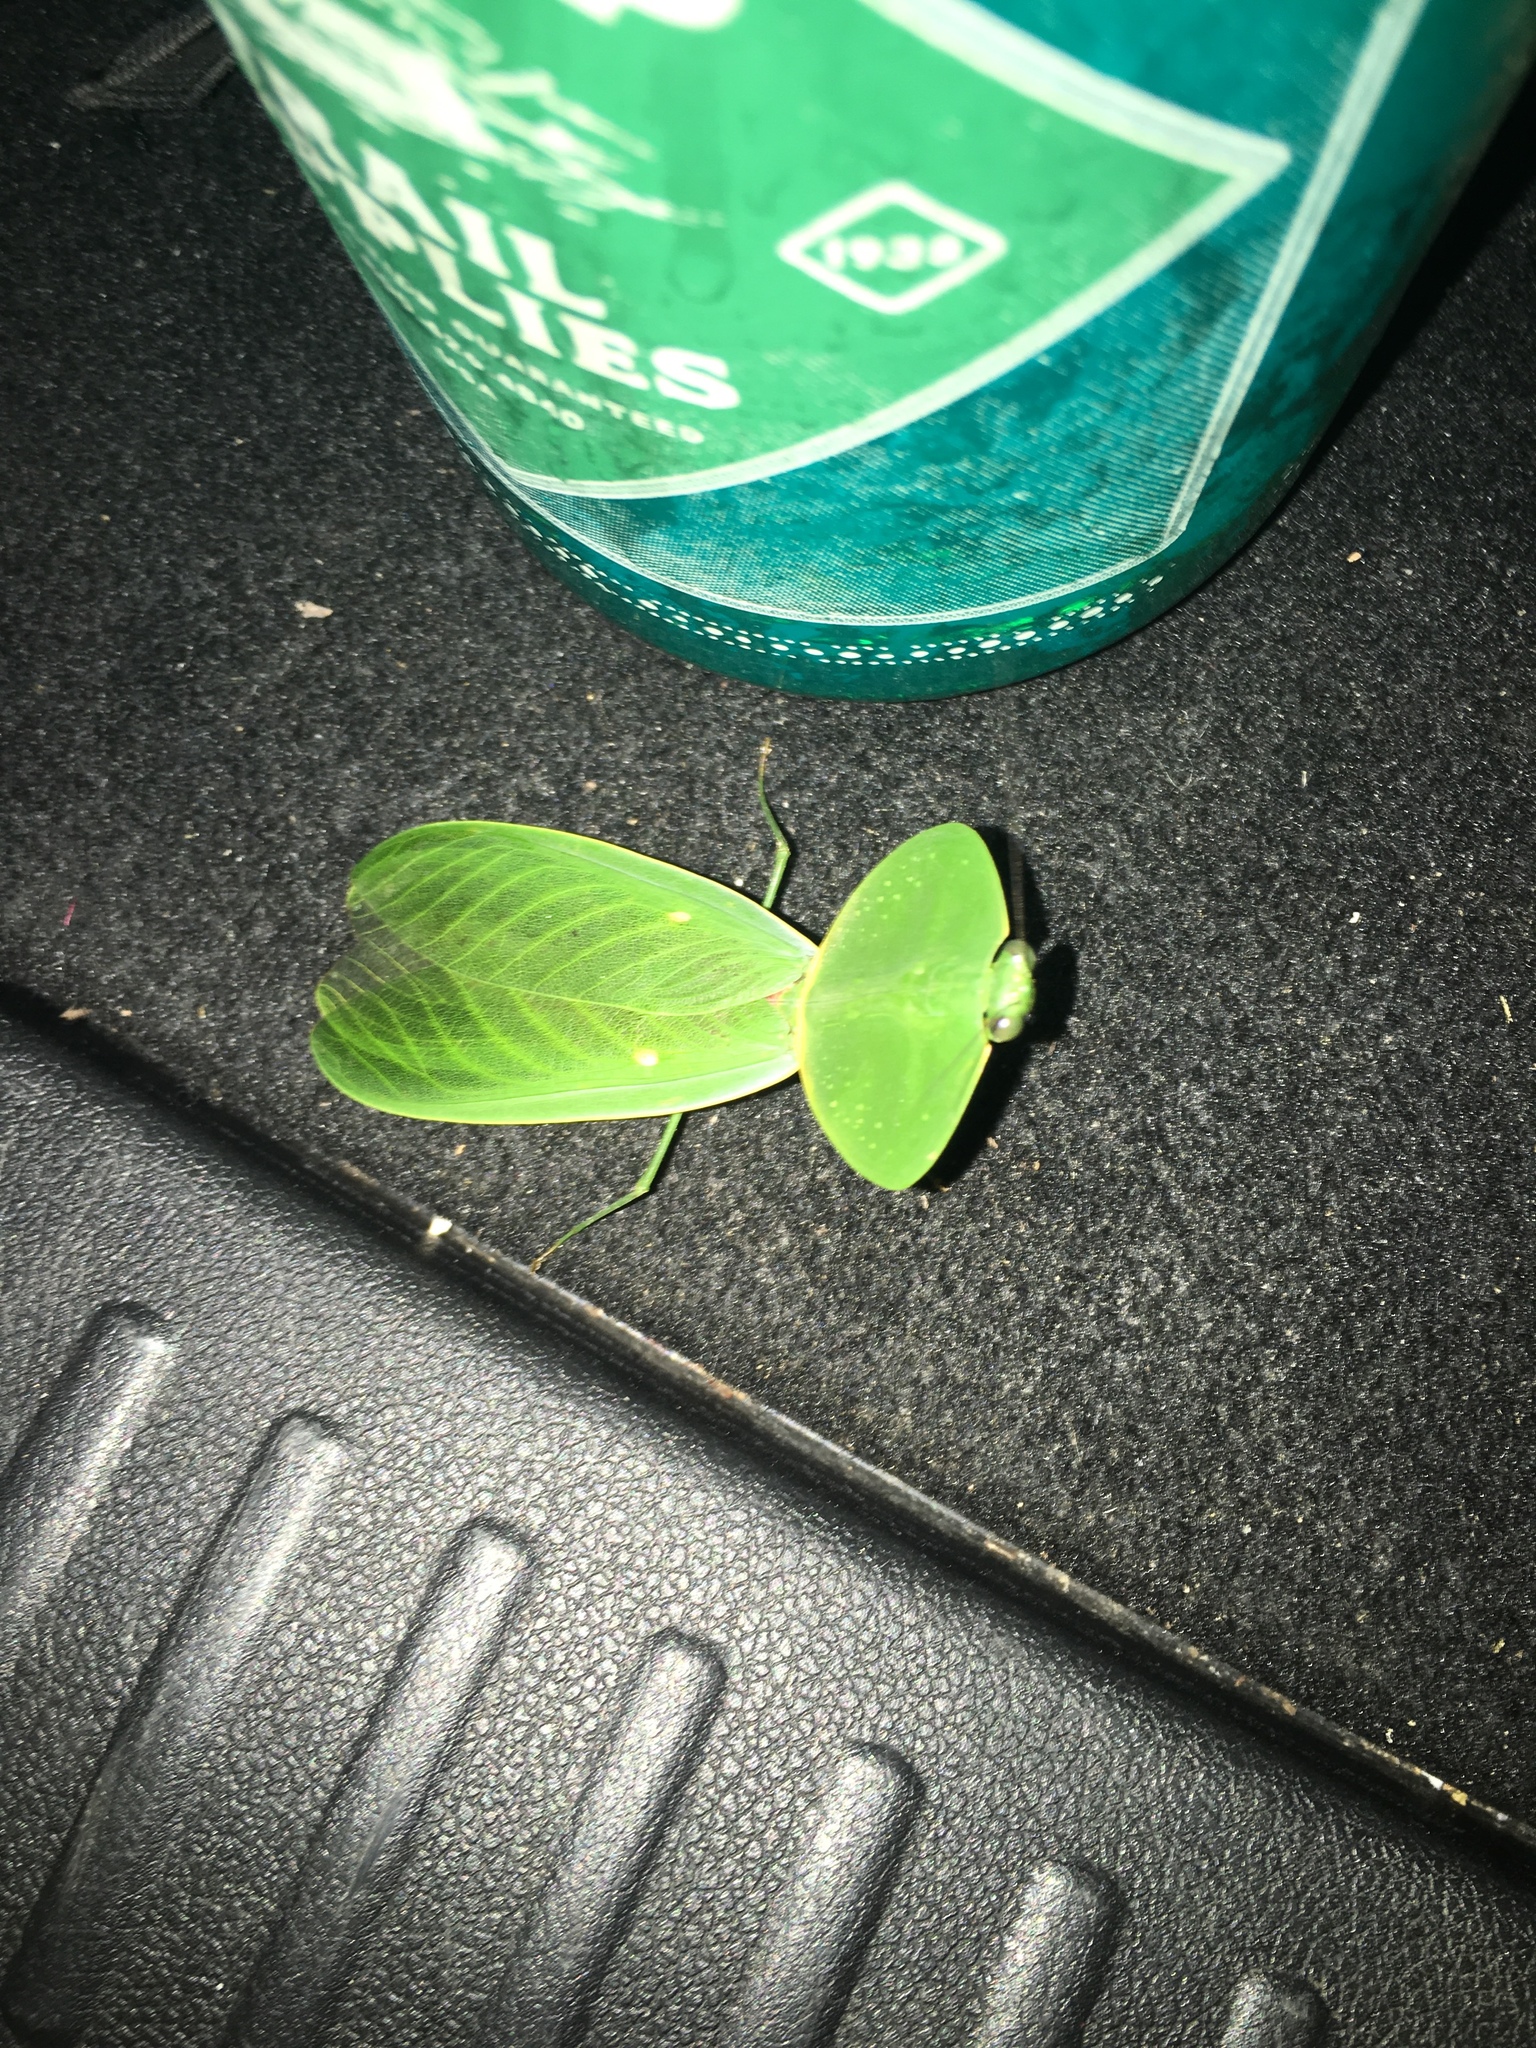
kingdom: Animalia
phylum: Arthropoda
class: Insecta
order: Mantodea
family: Mantidae
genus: Choeradodis
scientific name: Choeradodis rhombicollis
